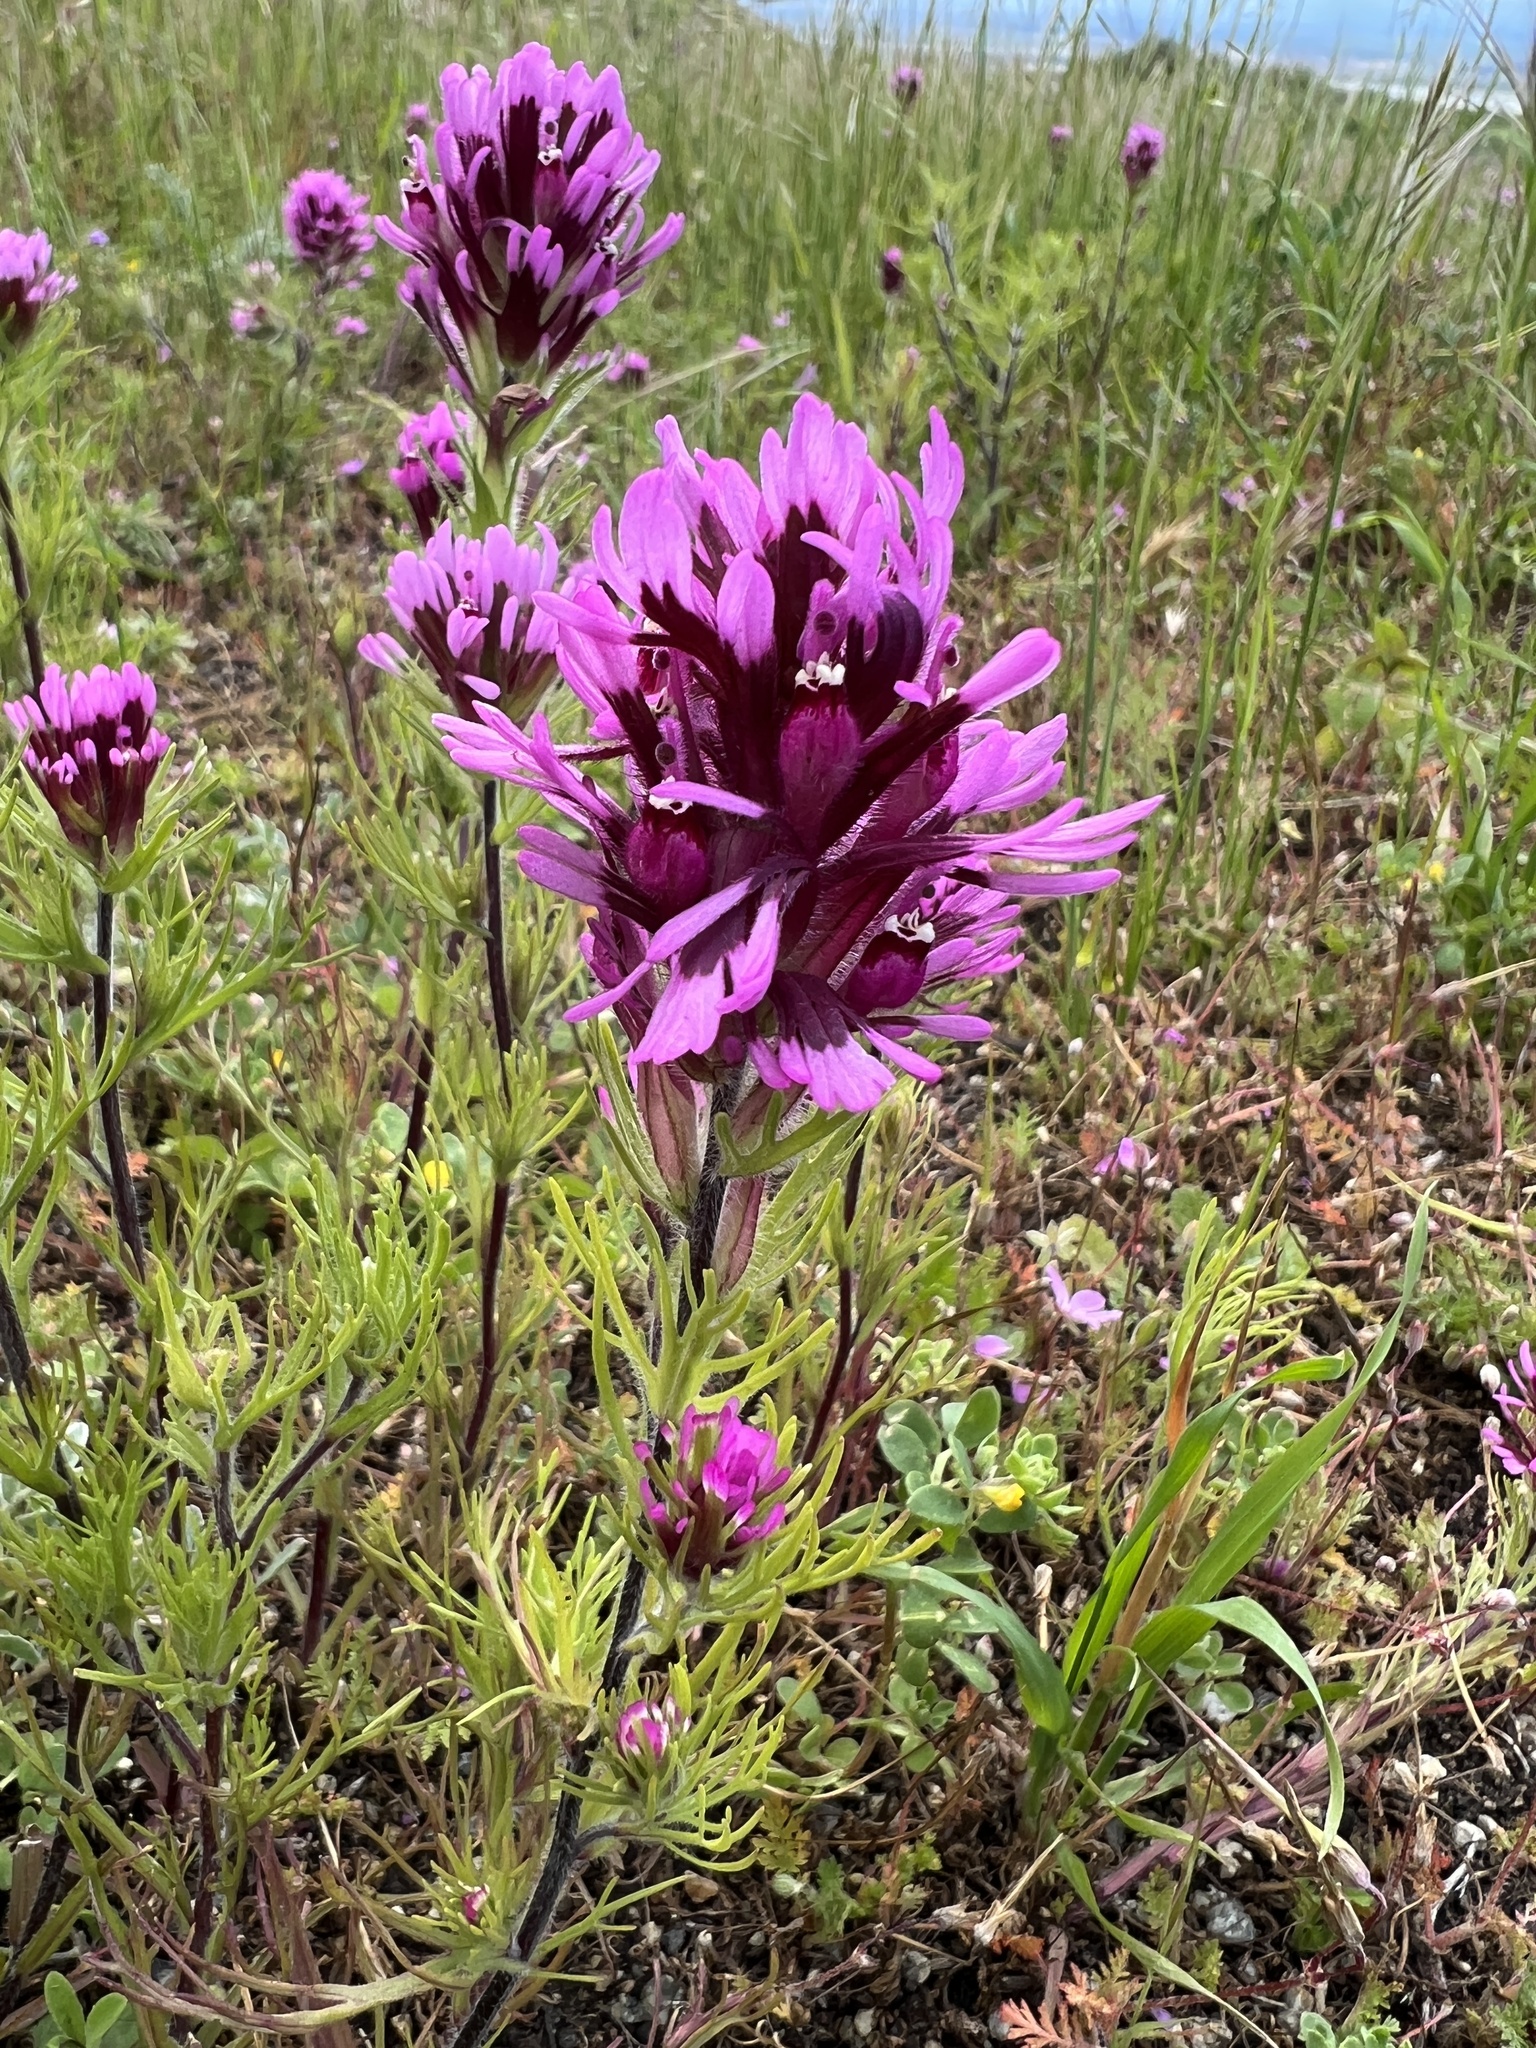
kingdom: Plantae
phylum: Tracheophyta
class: Magnoliopsida
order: Lamiales
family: Orobanchaceae
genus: Castilleja
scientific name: Castilleja exserta
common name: Purple owl-clover
